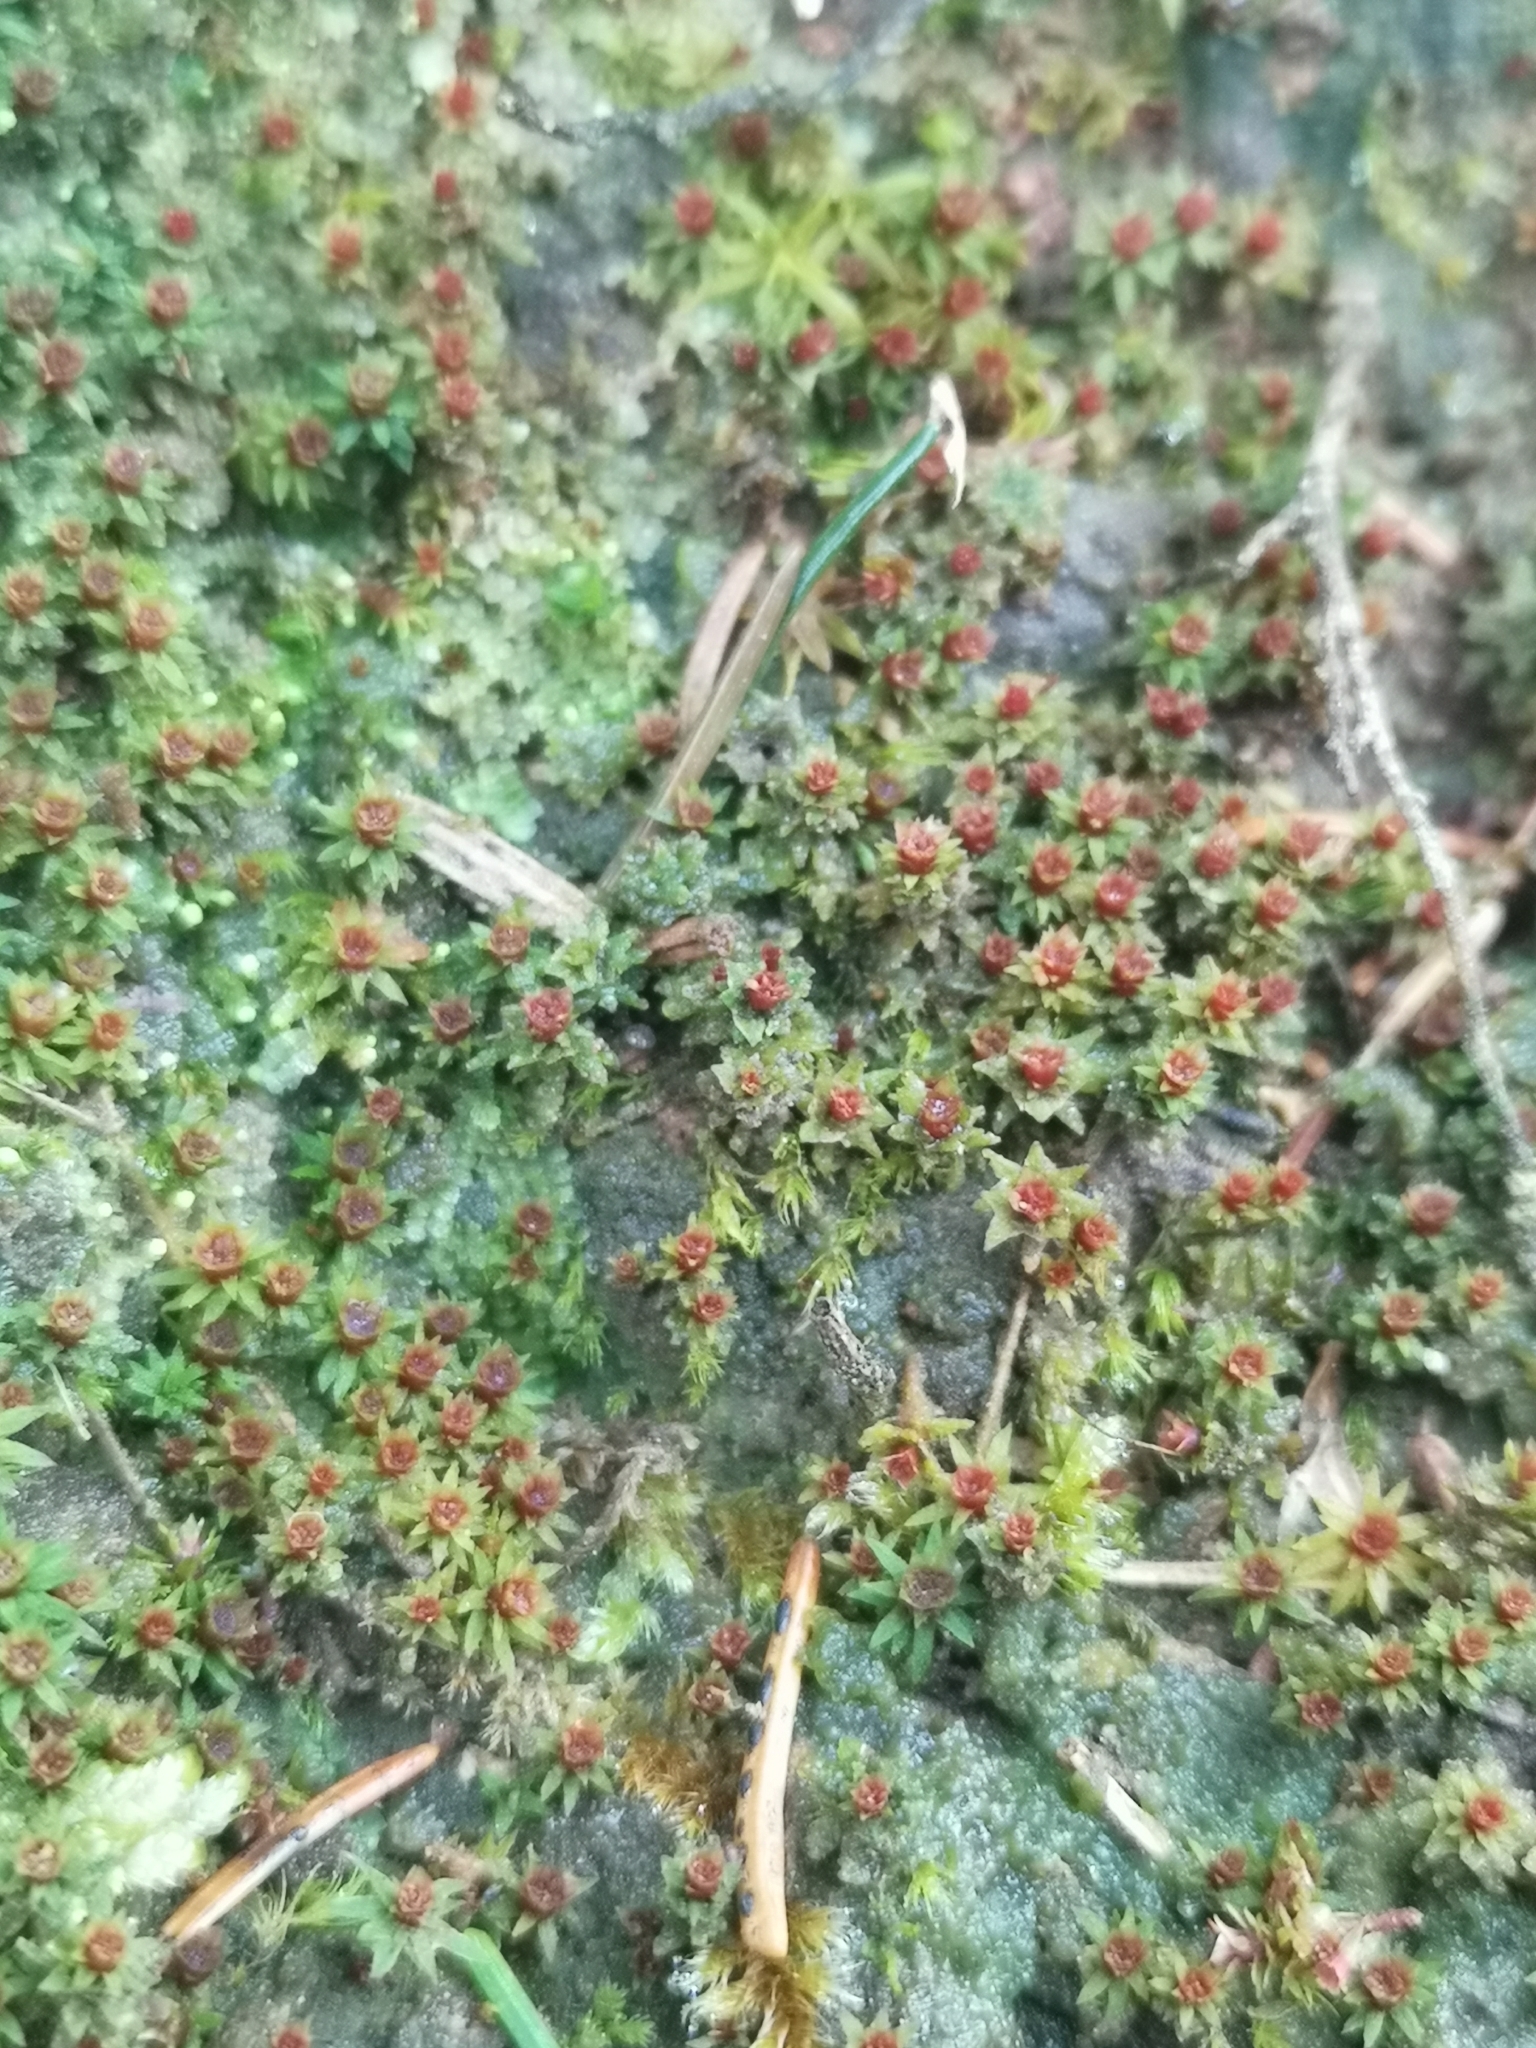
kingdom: Plantae
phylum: Bryophyta
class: Polytrichopsida
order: Polytrichales
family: Polytrichaceae
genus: Pogonatum
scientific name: Pogonatum aloides
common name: Aloe haircap
